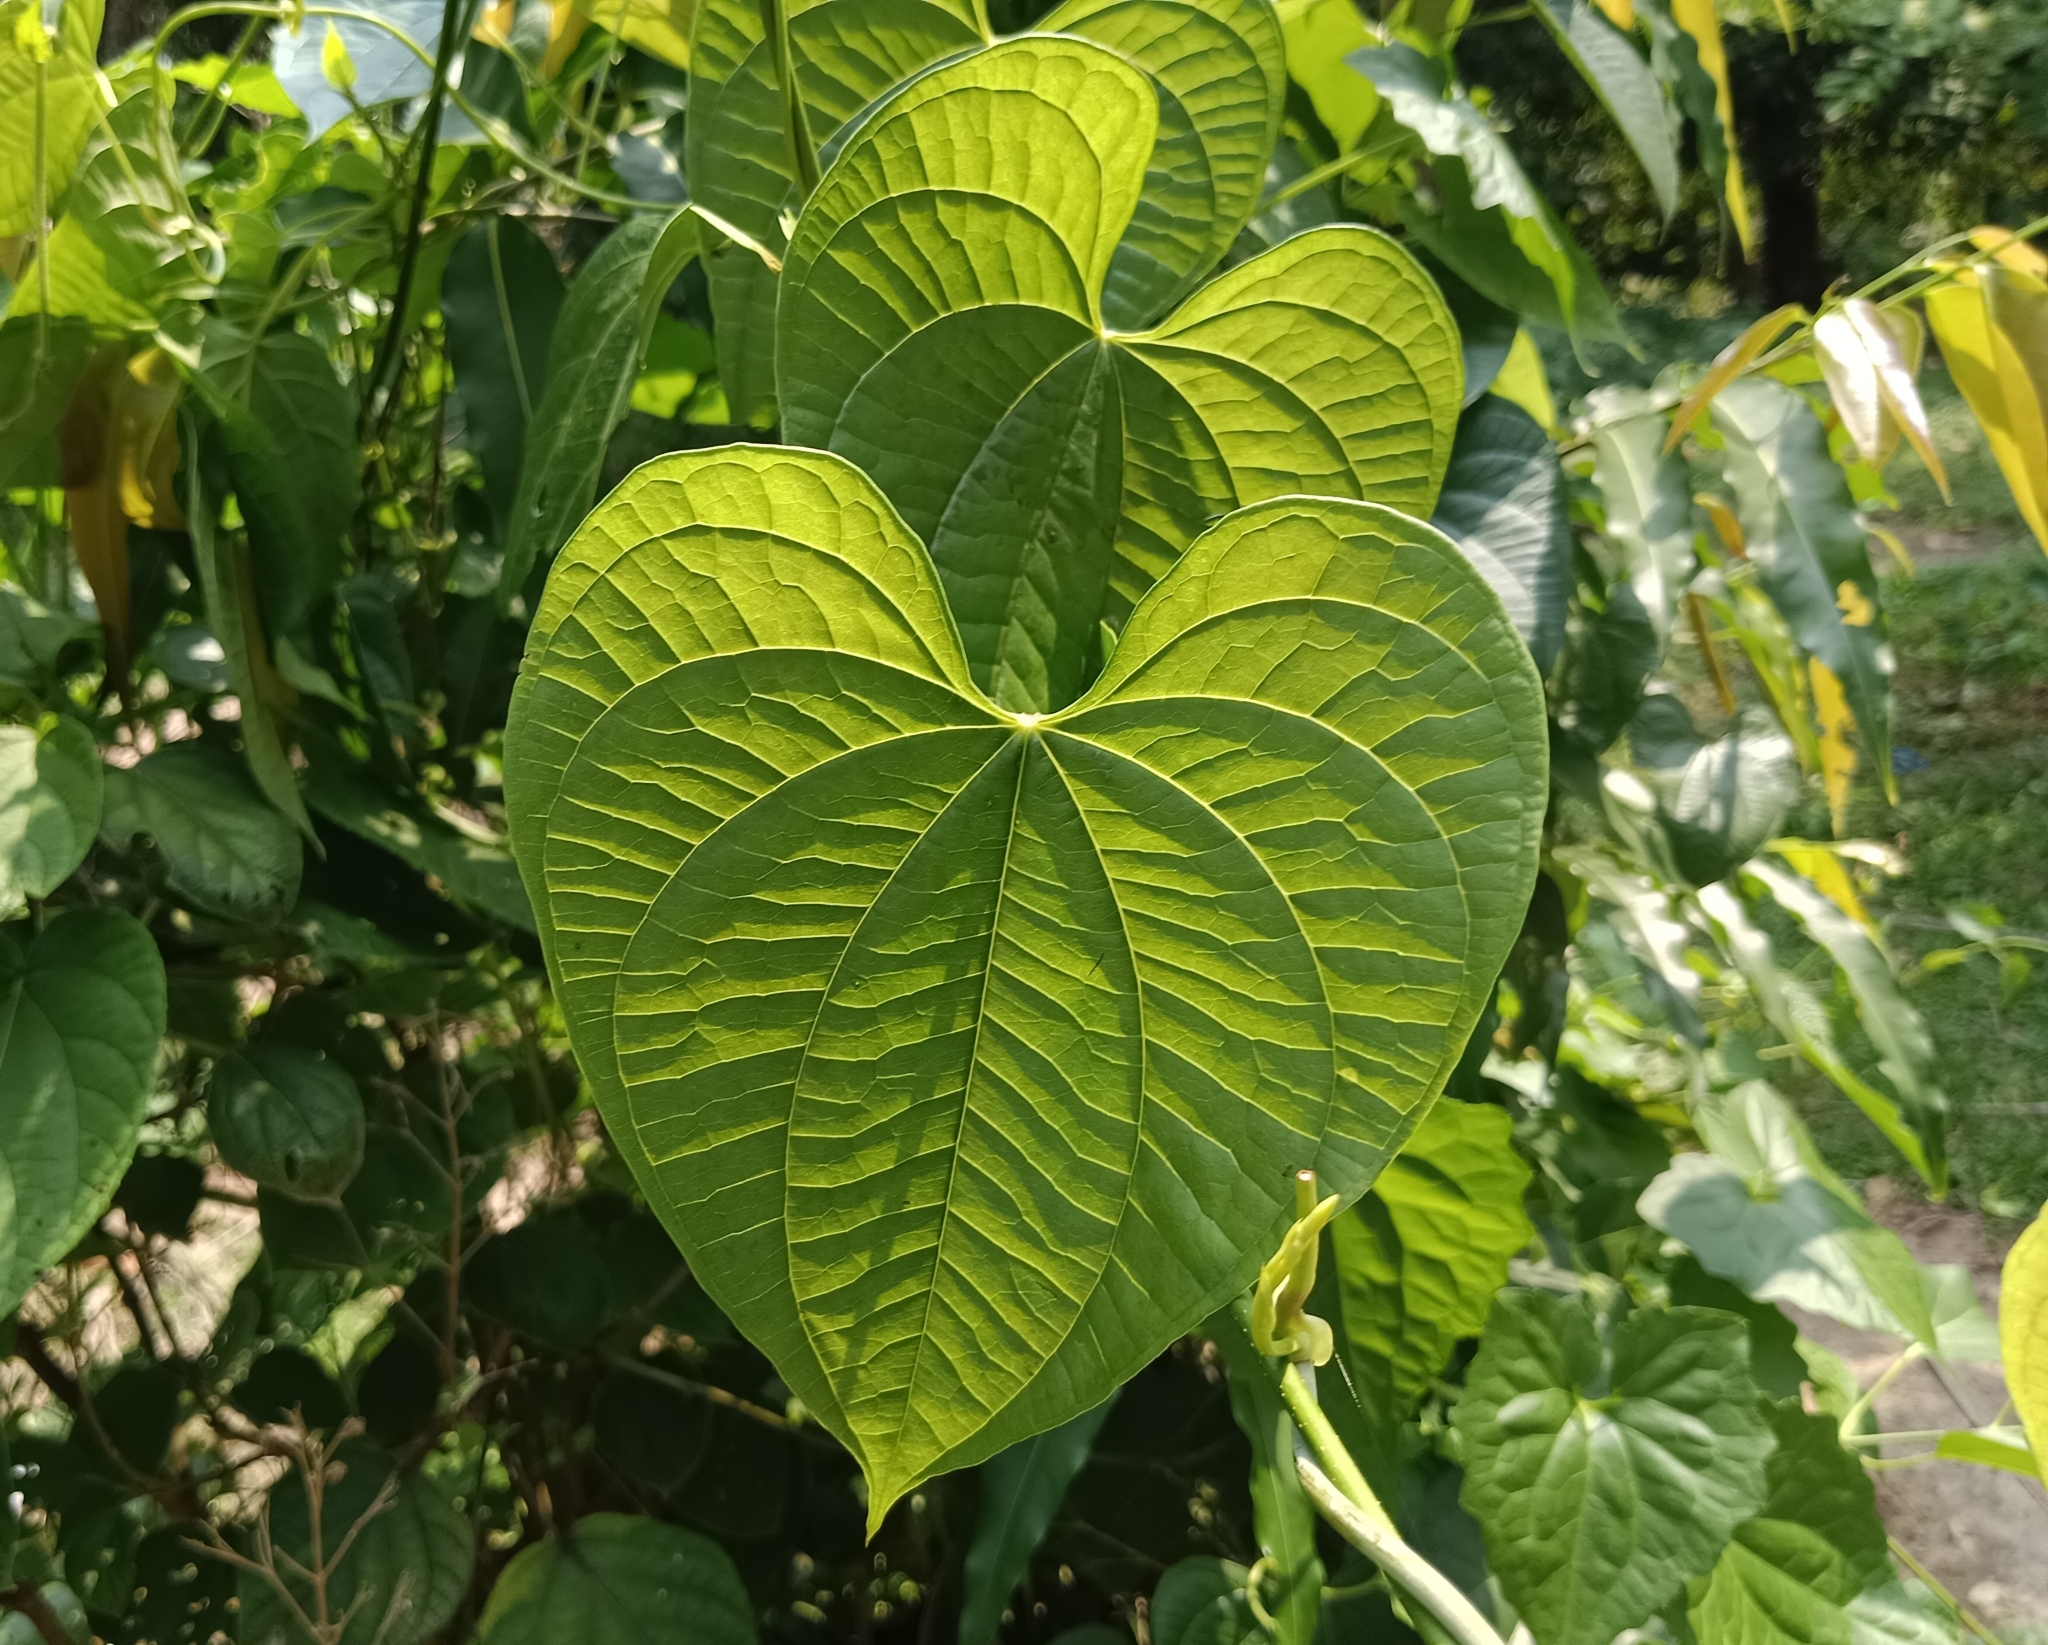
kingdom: Plantae
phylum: Tracheophyta
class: Liliopsida
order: Dioscoreales
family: Dioscoreaceae
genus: Dioscorea
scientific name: Dioscorea bulbifera
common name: Air yam
